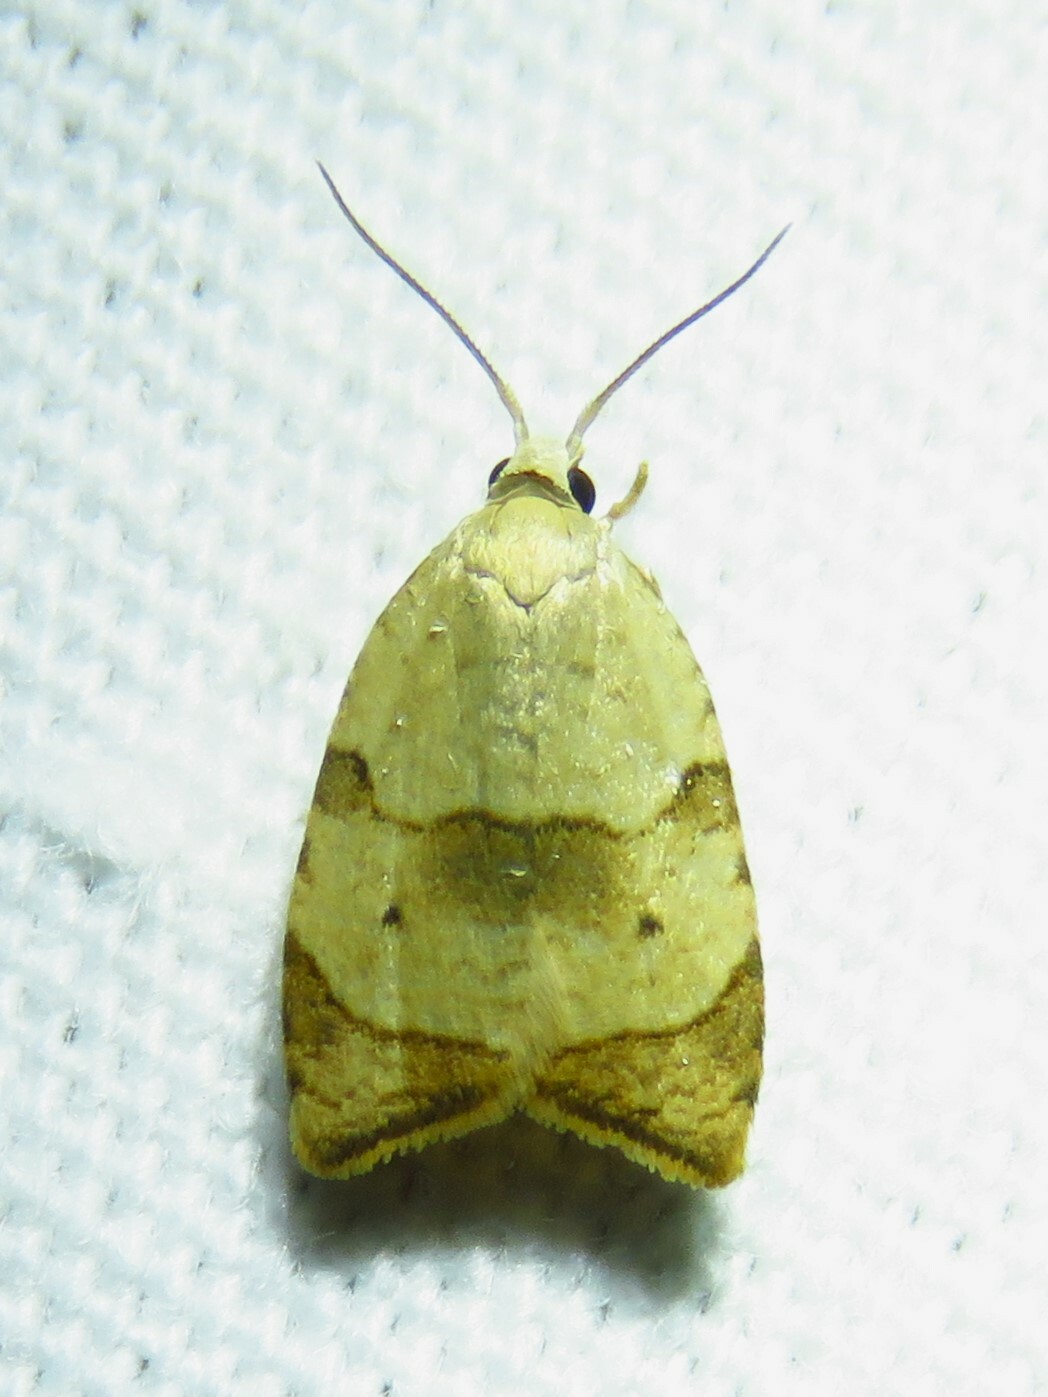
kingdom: Animalia
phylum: Arthropoda
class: Insecta
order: Lepidoptera
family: Tortricidae
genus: Coelostathma
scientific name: Coelostathma discopunctana
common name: Batman moth
